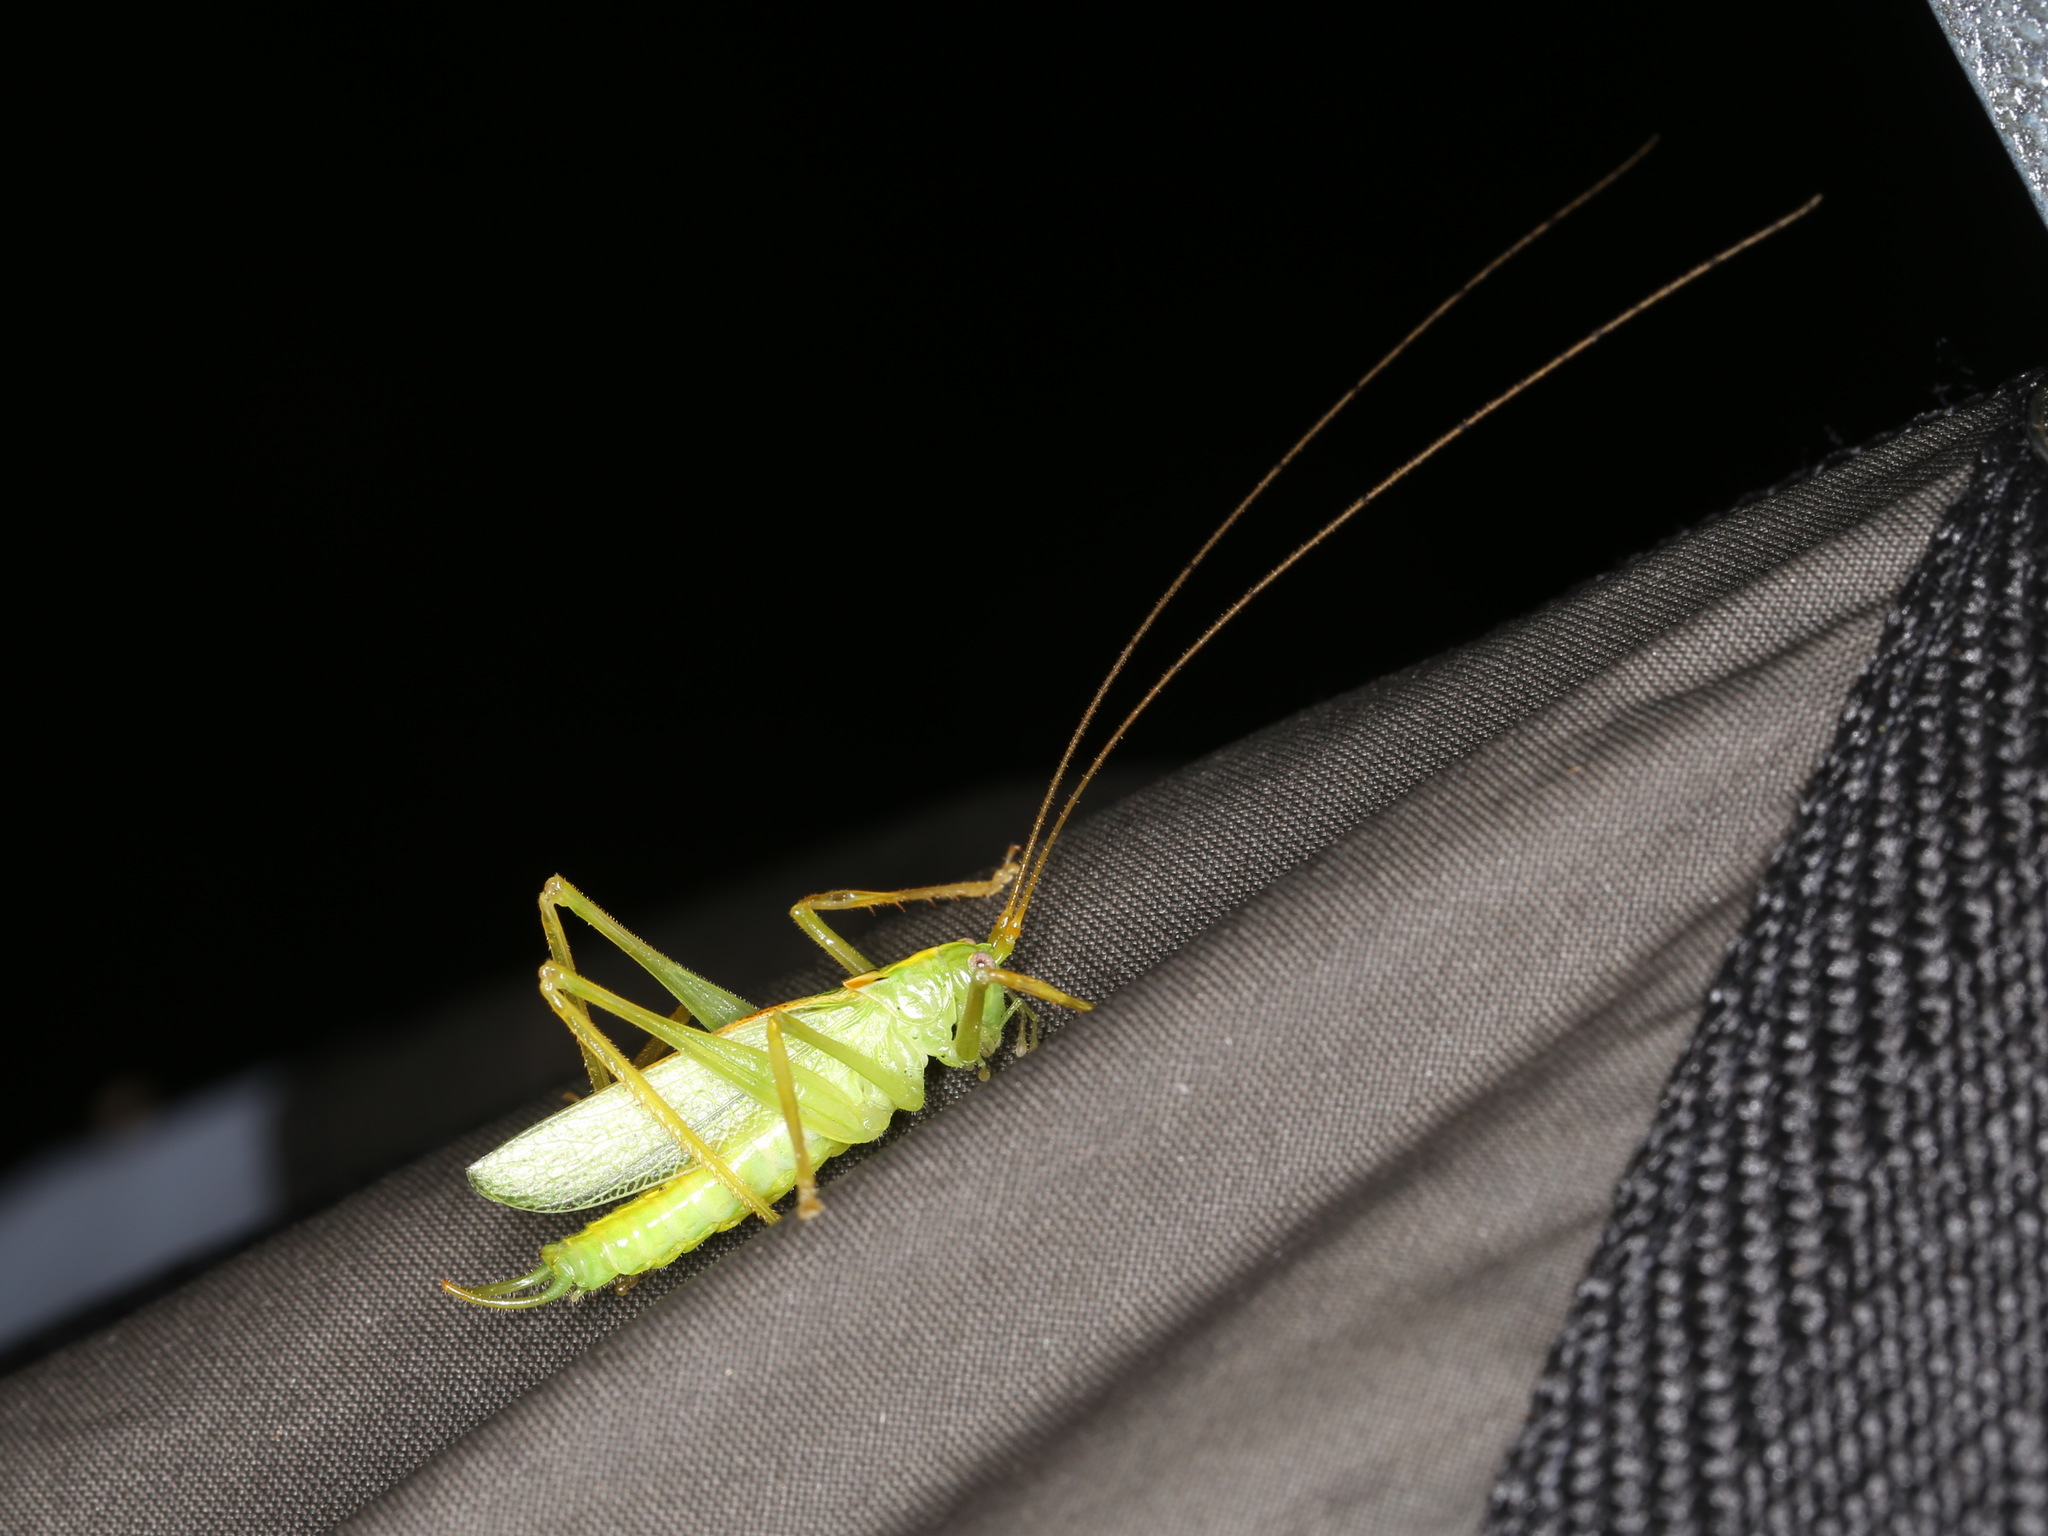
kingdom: Animalia
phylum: Arthropoda
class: Insecta
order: Orthoptera
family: Tettigoniidae
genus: Meconema
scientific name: Meconema thalassinum
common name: Oak bush-cricket
